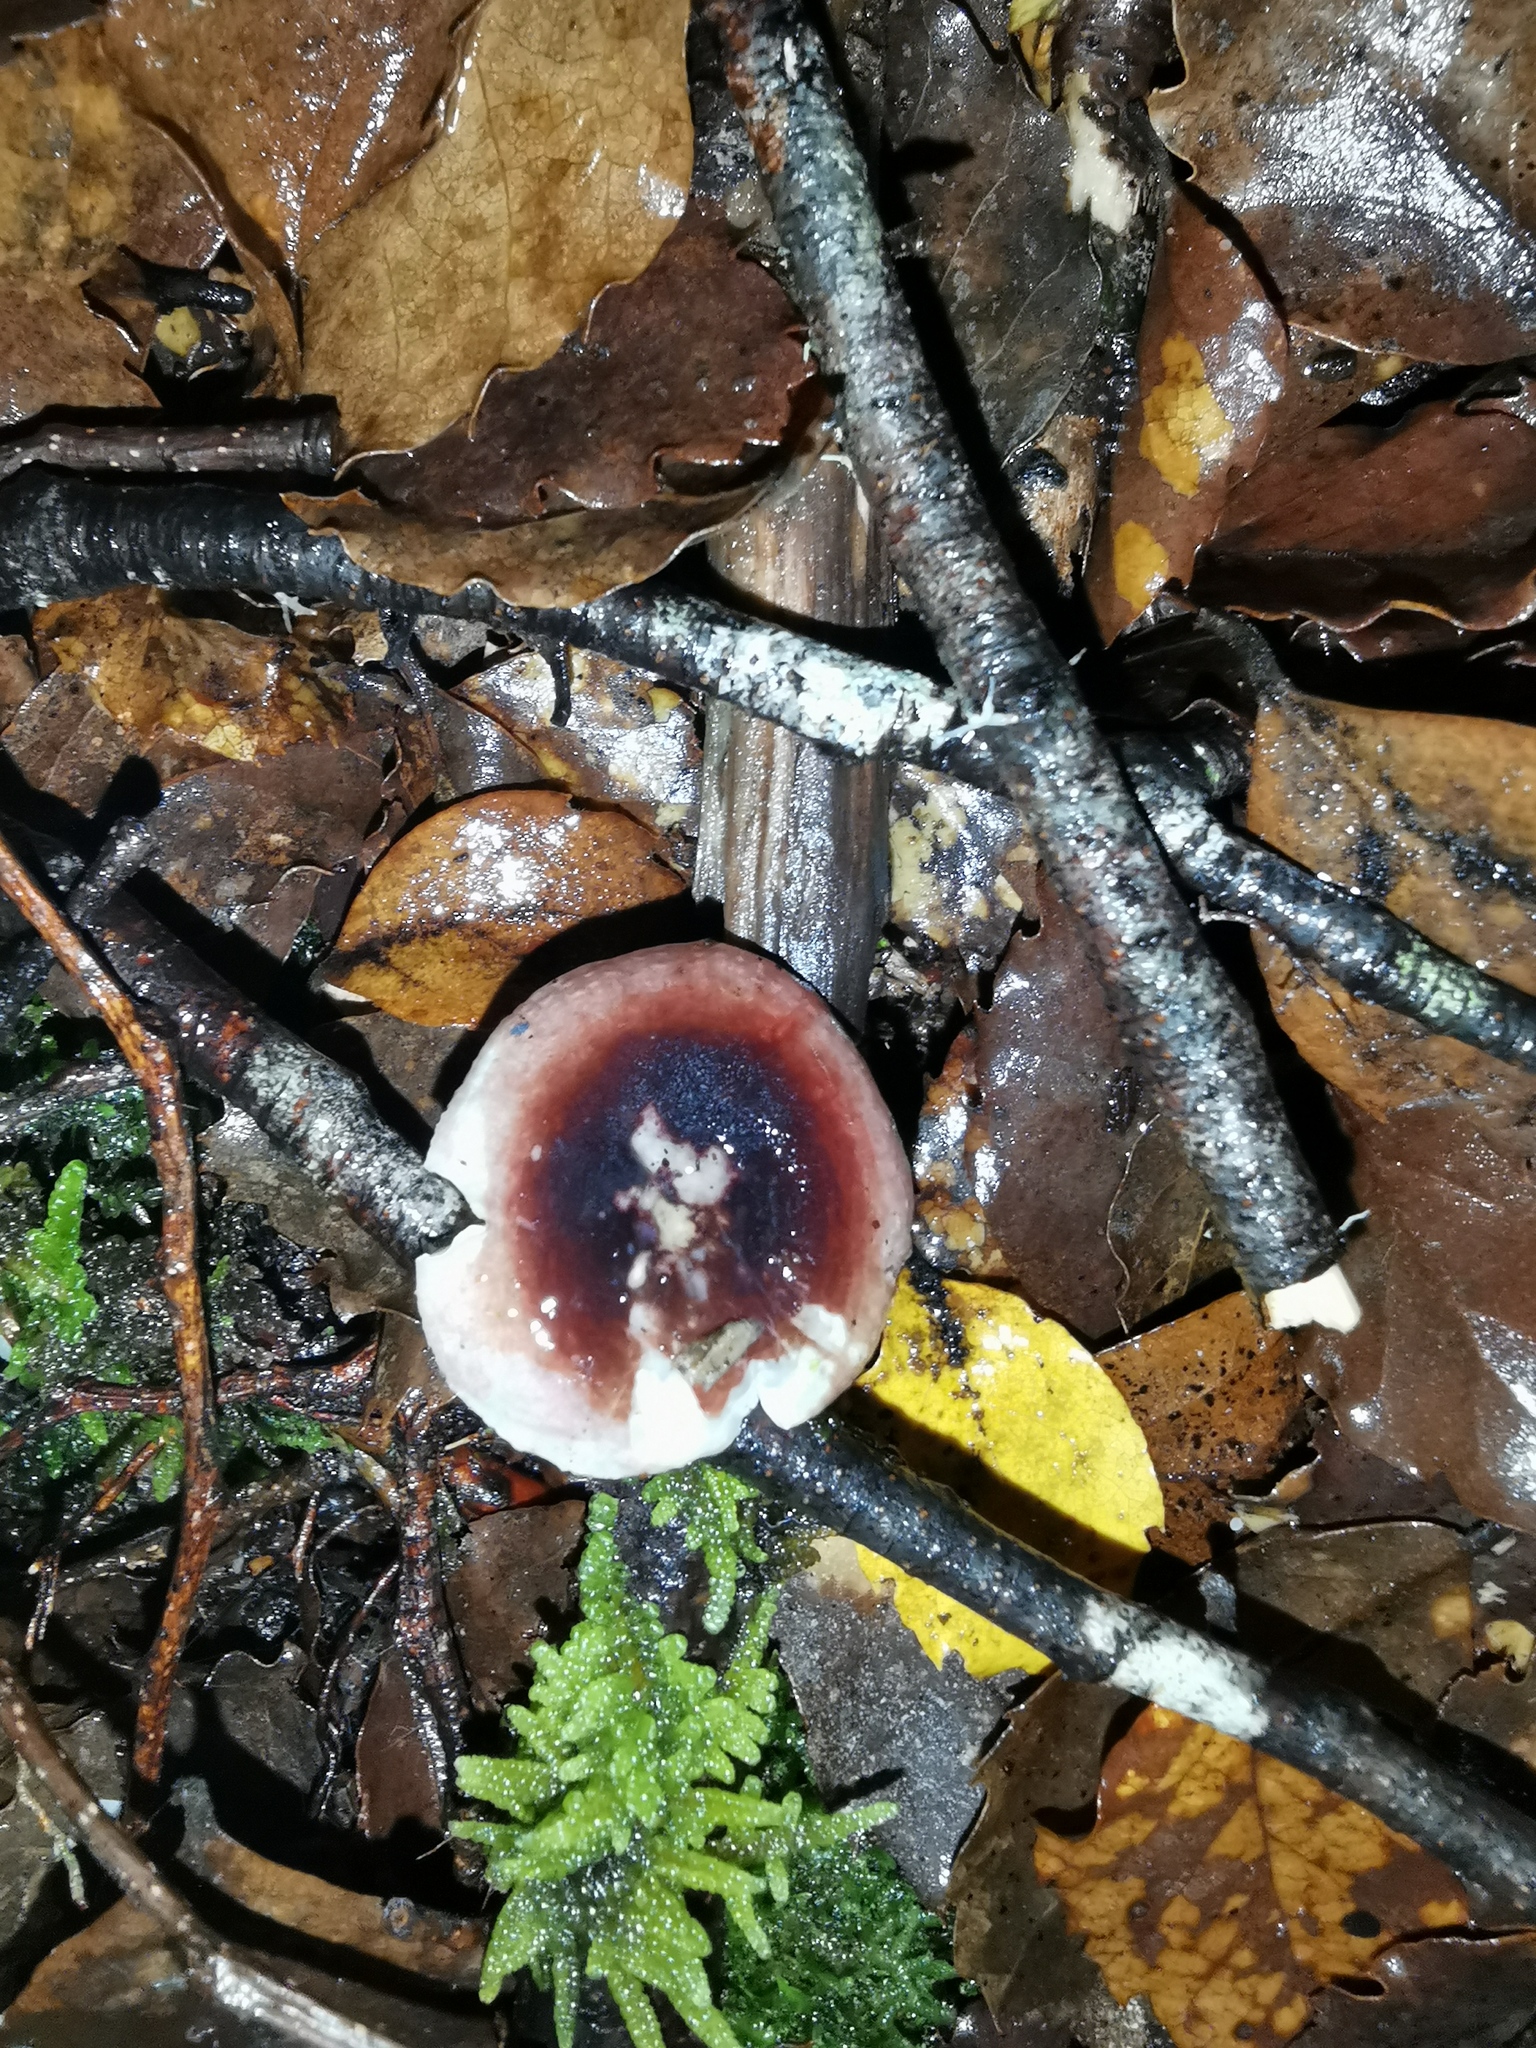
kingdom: Fungi
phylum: Basidiomycota
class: Agaricomycetes
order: Russulales
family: Russulaceae
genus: Russula
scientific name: Russula roseopileata
